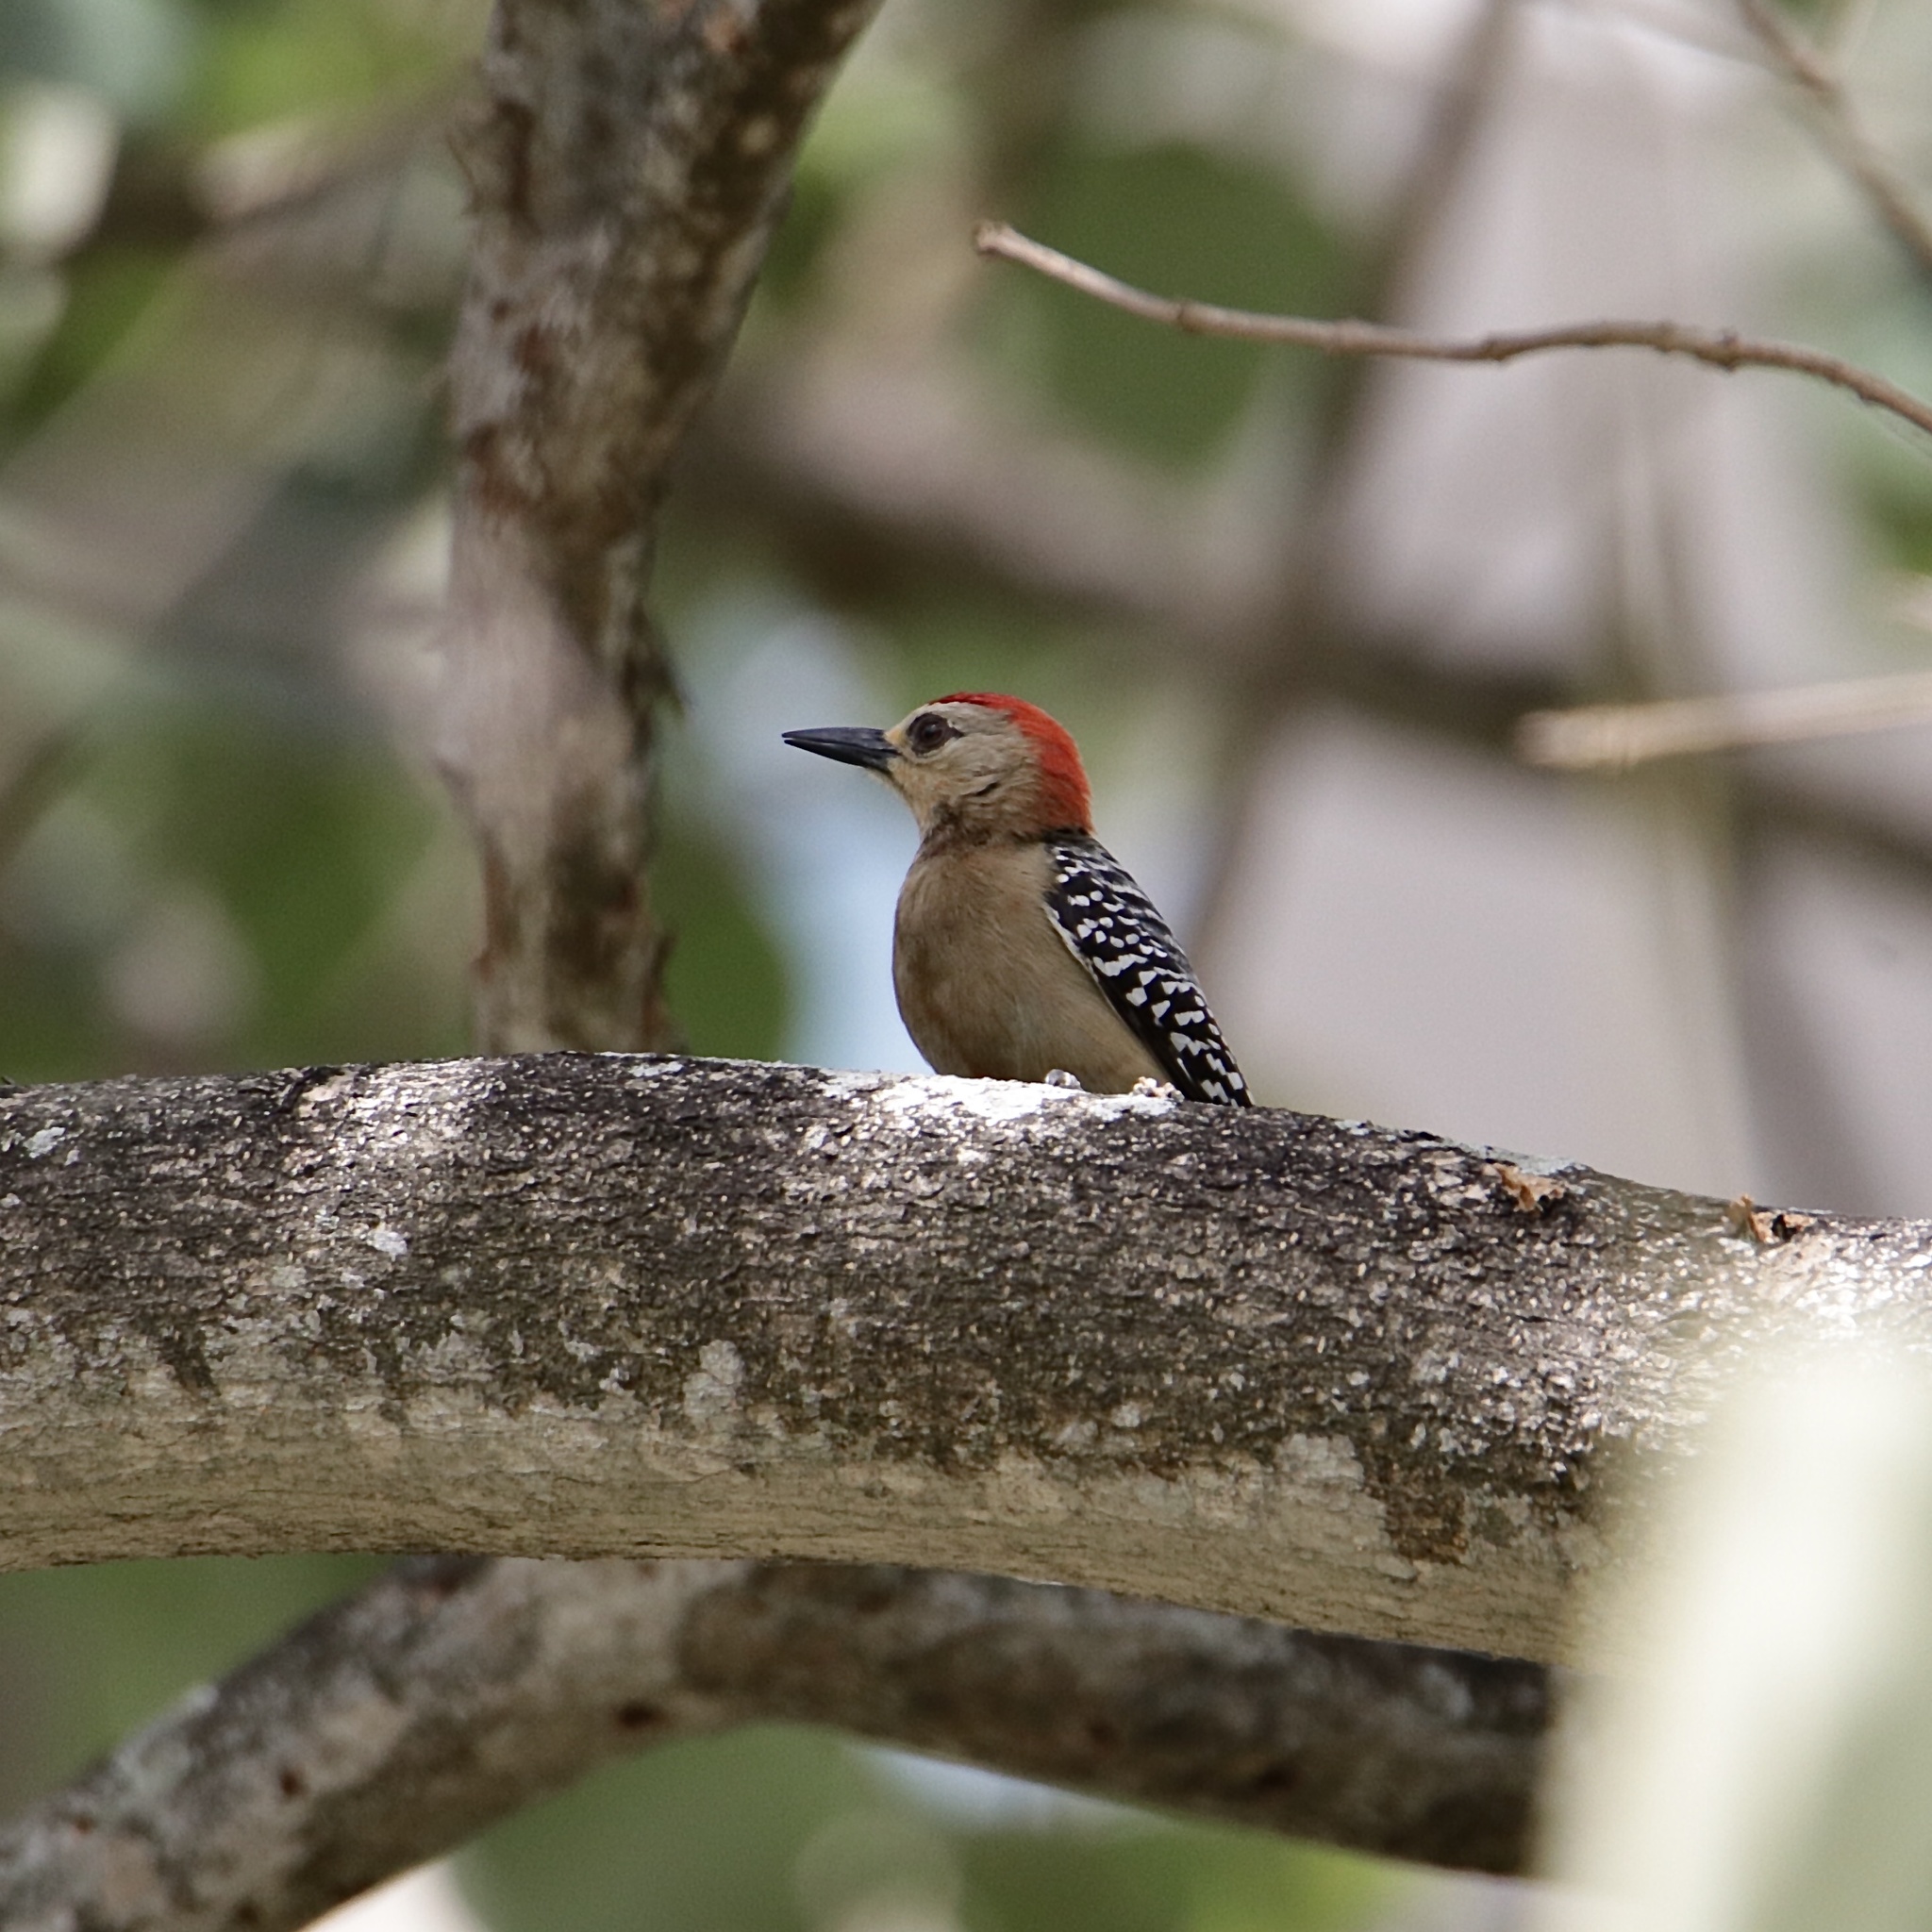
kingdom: Animalia
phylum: Chordata
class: Aves
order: Piciformes
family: Picidae
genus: Melanerpes
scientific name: Melanerpes rubricapillus
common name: Red-crowned woodpecker
